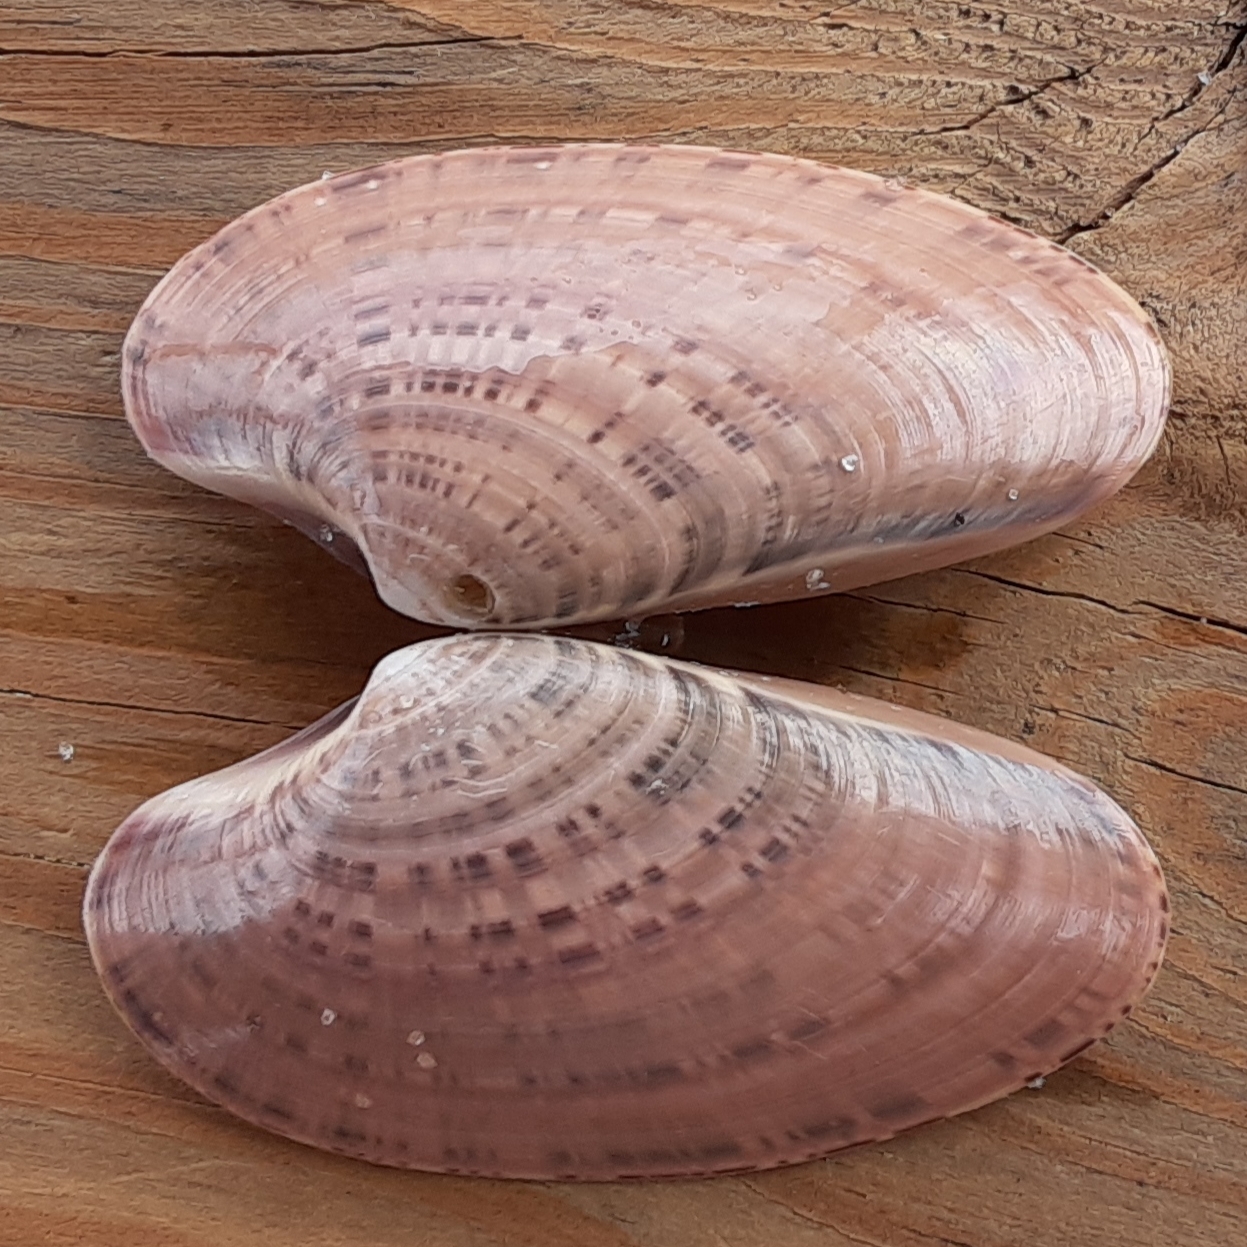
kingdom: Animalia
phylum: Mollusca
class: Bivalvia
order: Venerida
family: Veneridae
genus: Macrocallista
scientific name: Macrocallista nimbosa
